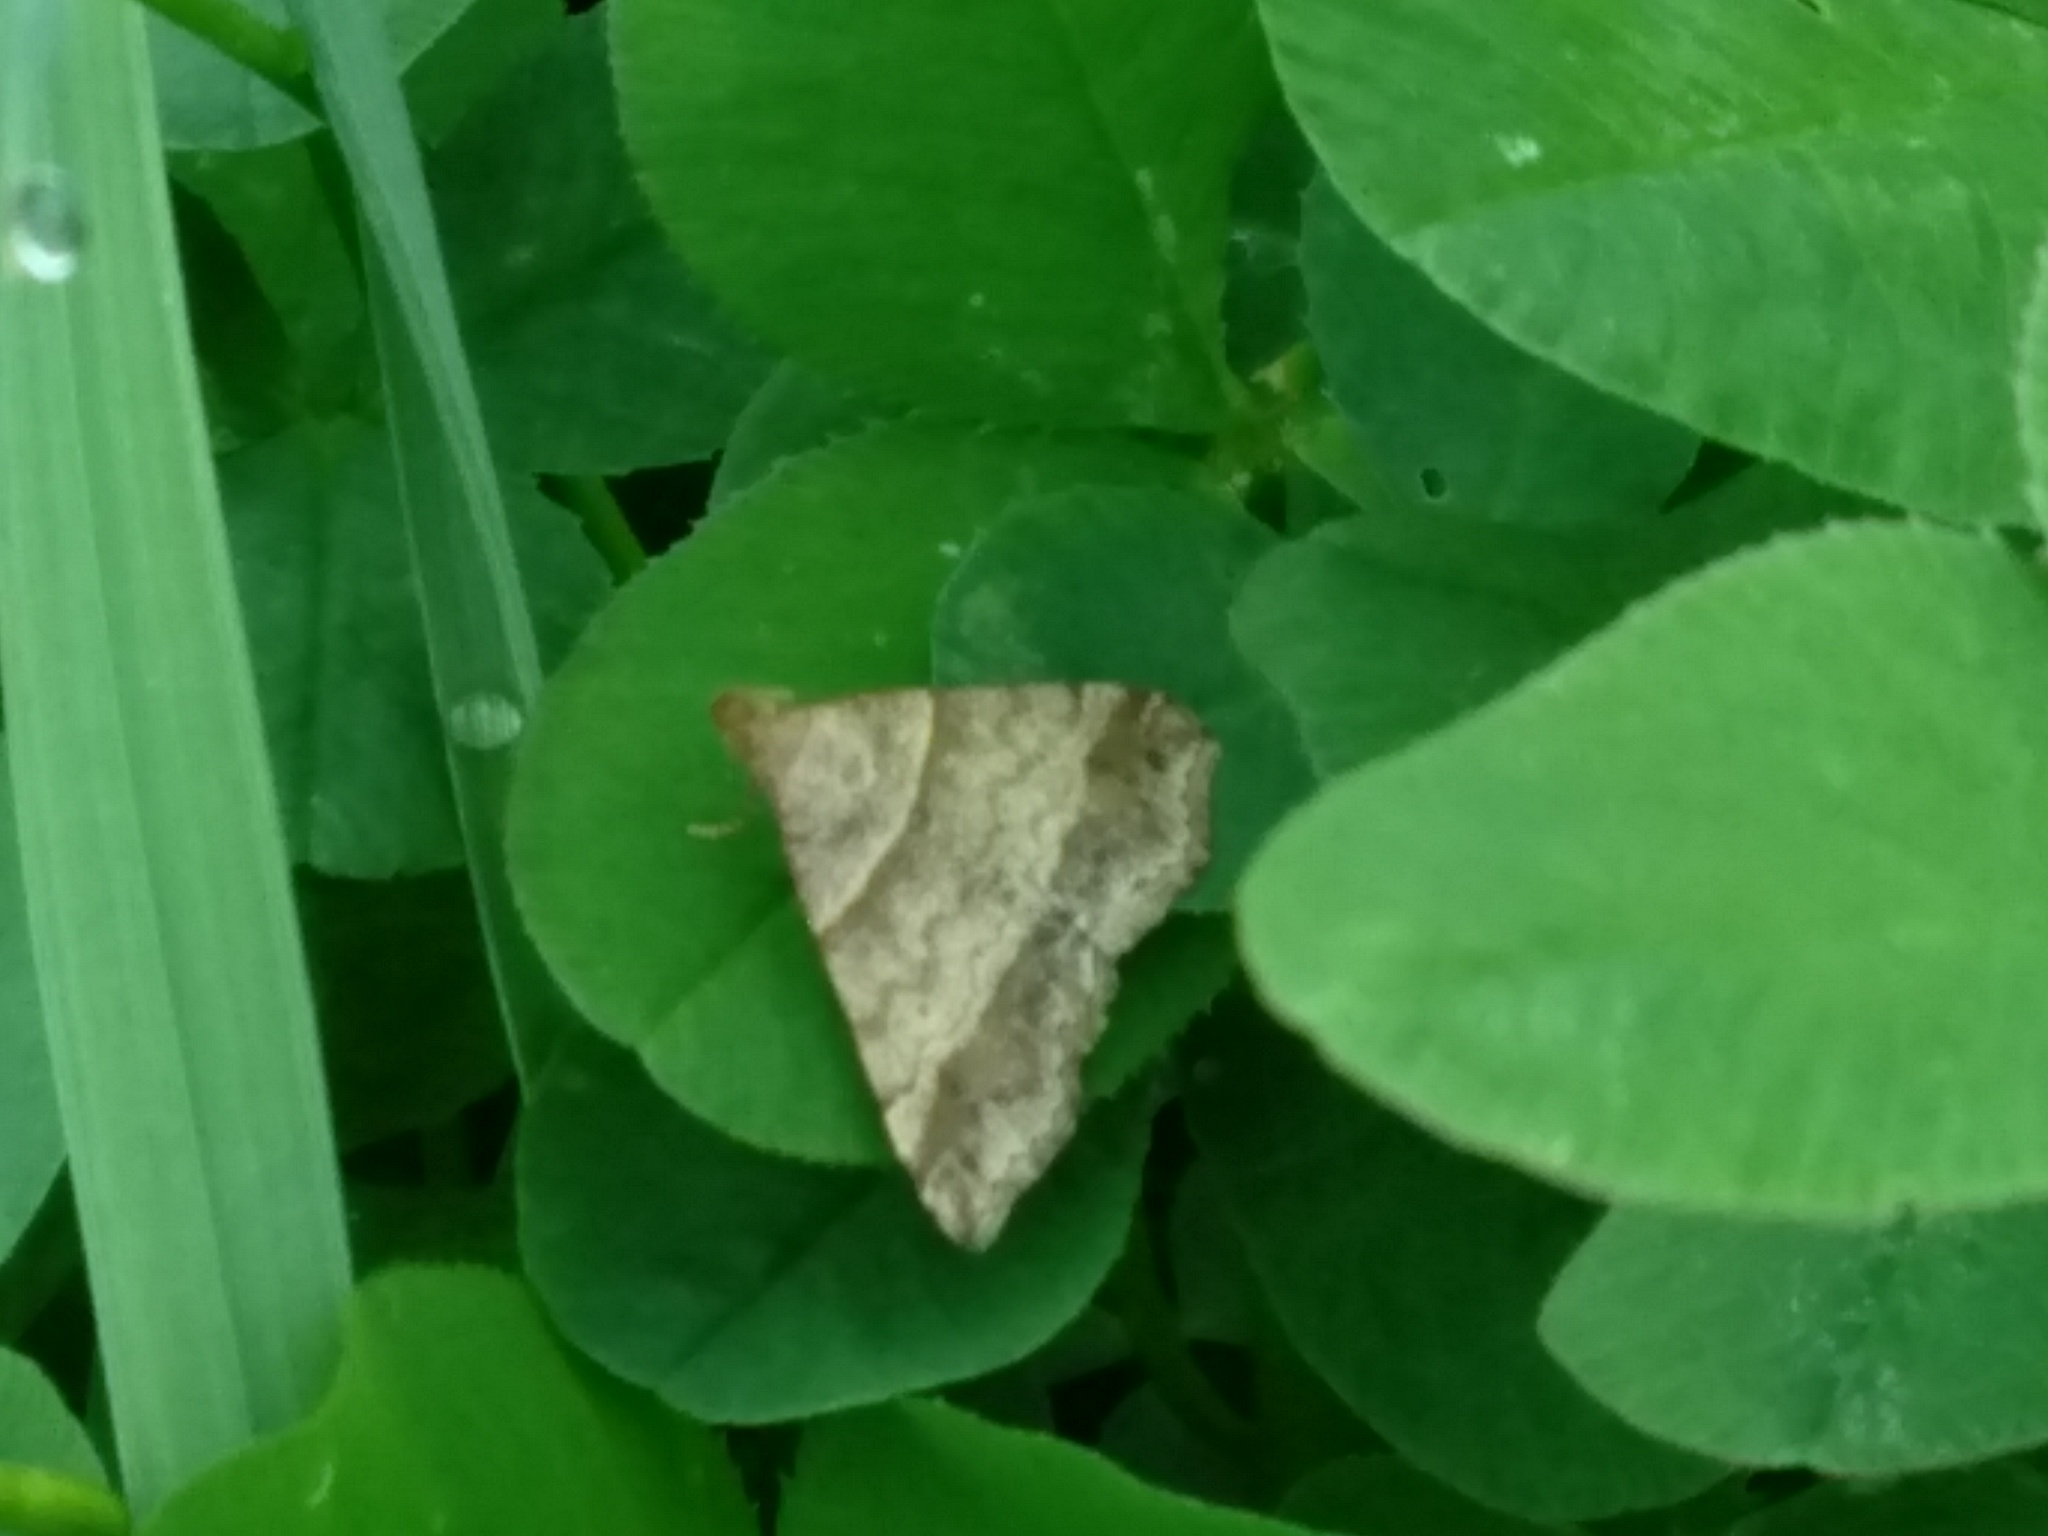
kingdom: Animalia
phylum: Arthropoda
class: Insecta
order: Lepidoptera
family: Erebidae
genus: Phaeolita
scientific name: Phaeolita pyramusalis
